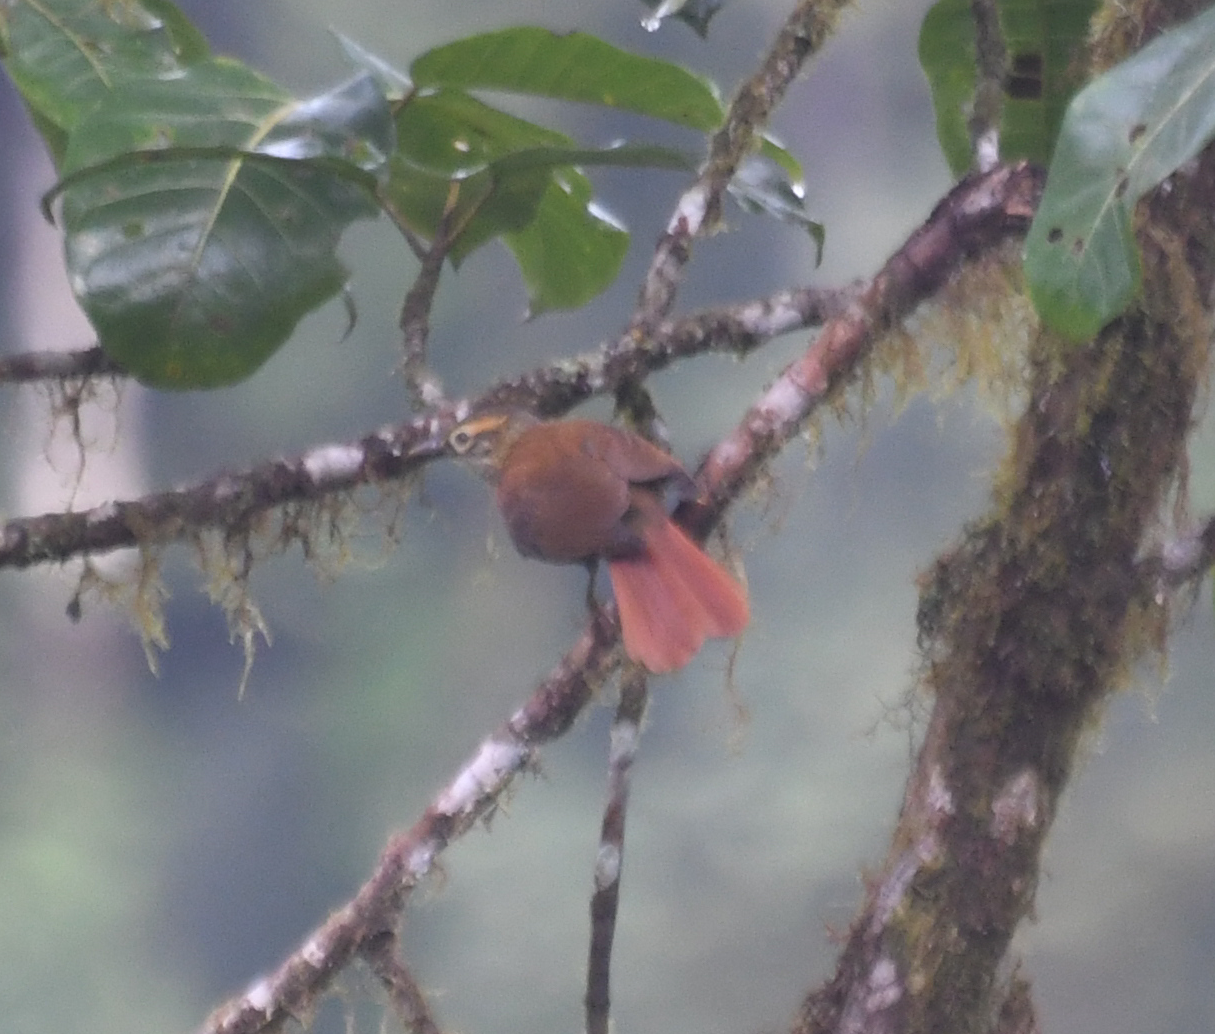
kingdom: Animalia
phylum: Chordata
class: Aves
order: Passeriformes
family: Furnariidae
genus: Anabacerthia
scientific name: Anabacerthia variegaticeps
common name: Scaly-throated foliage-gleaner
